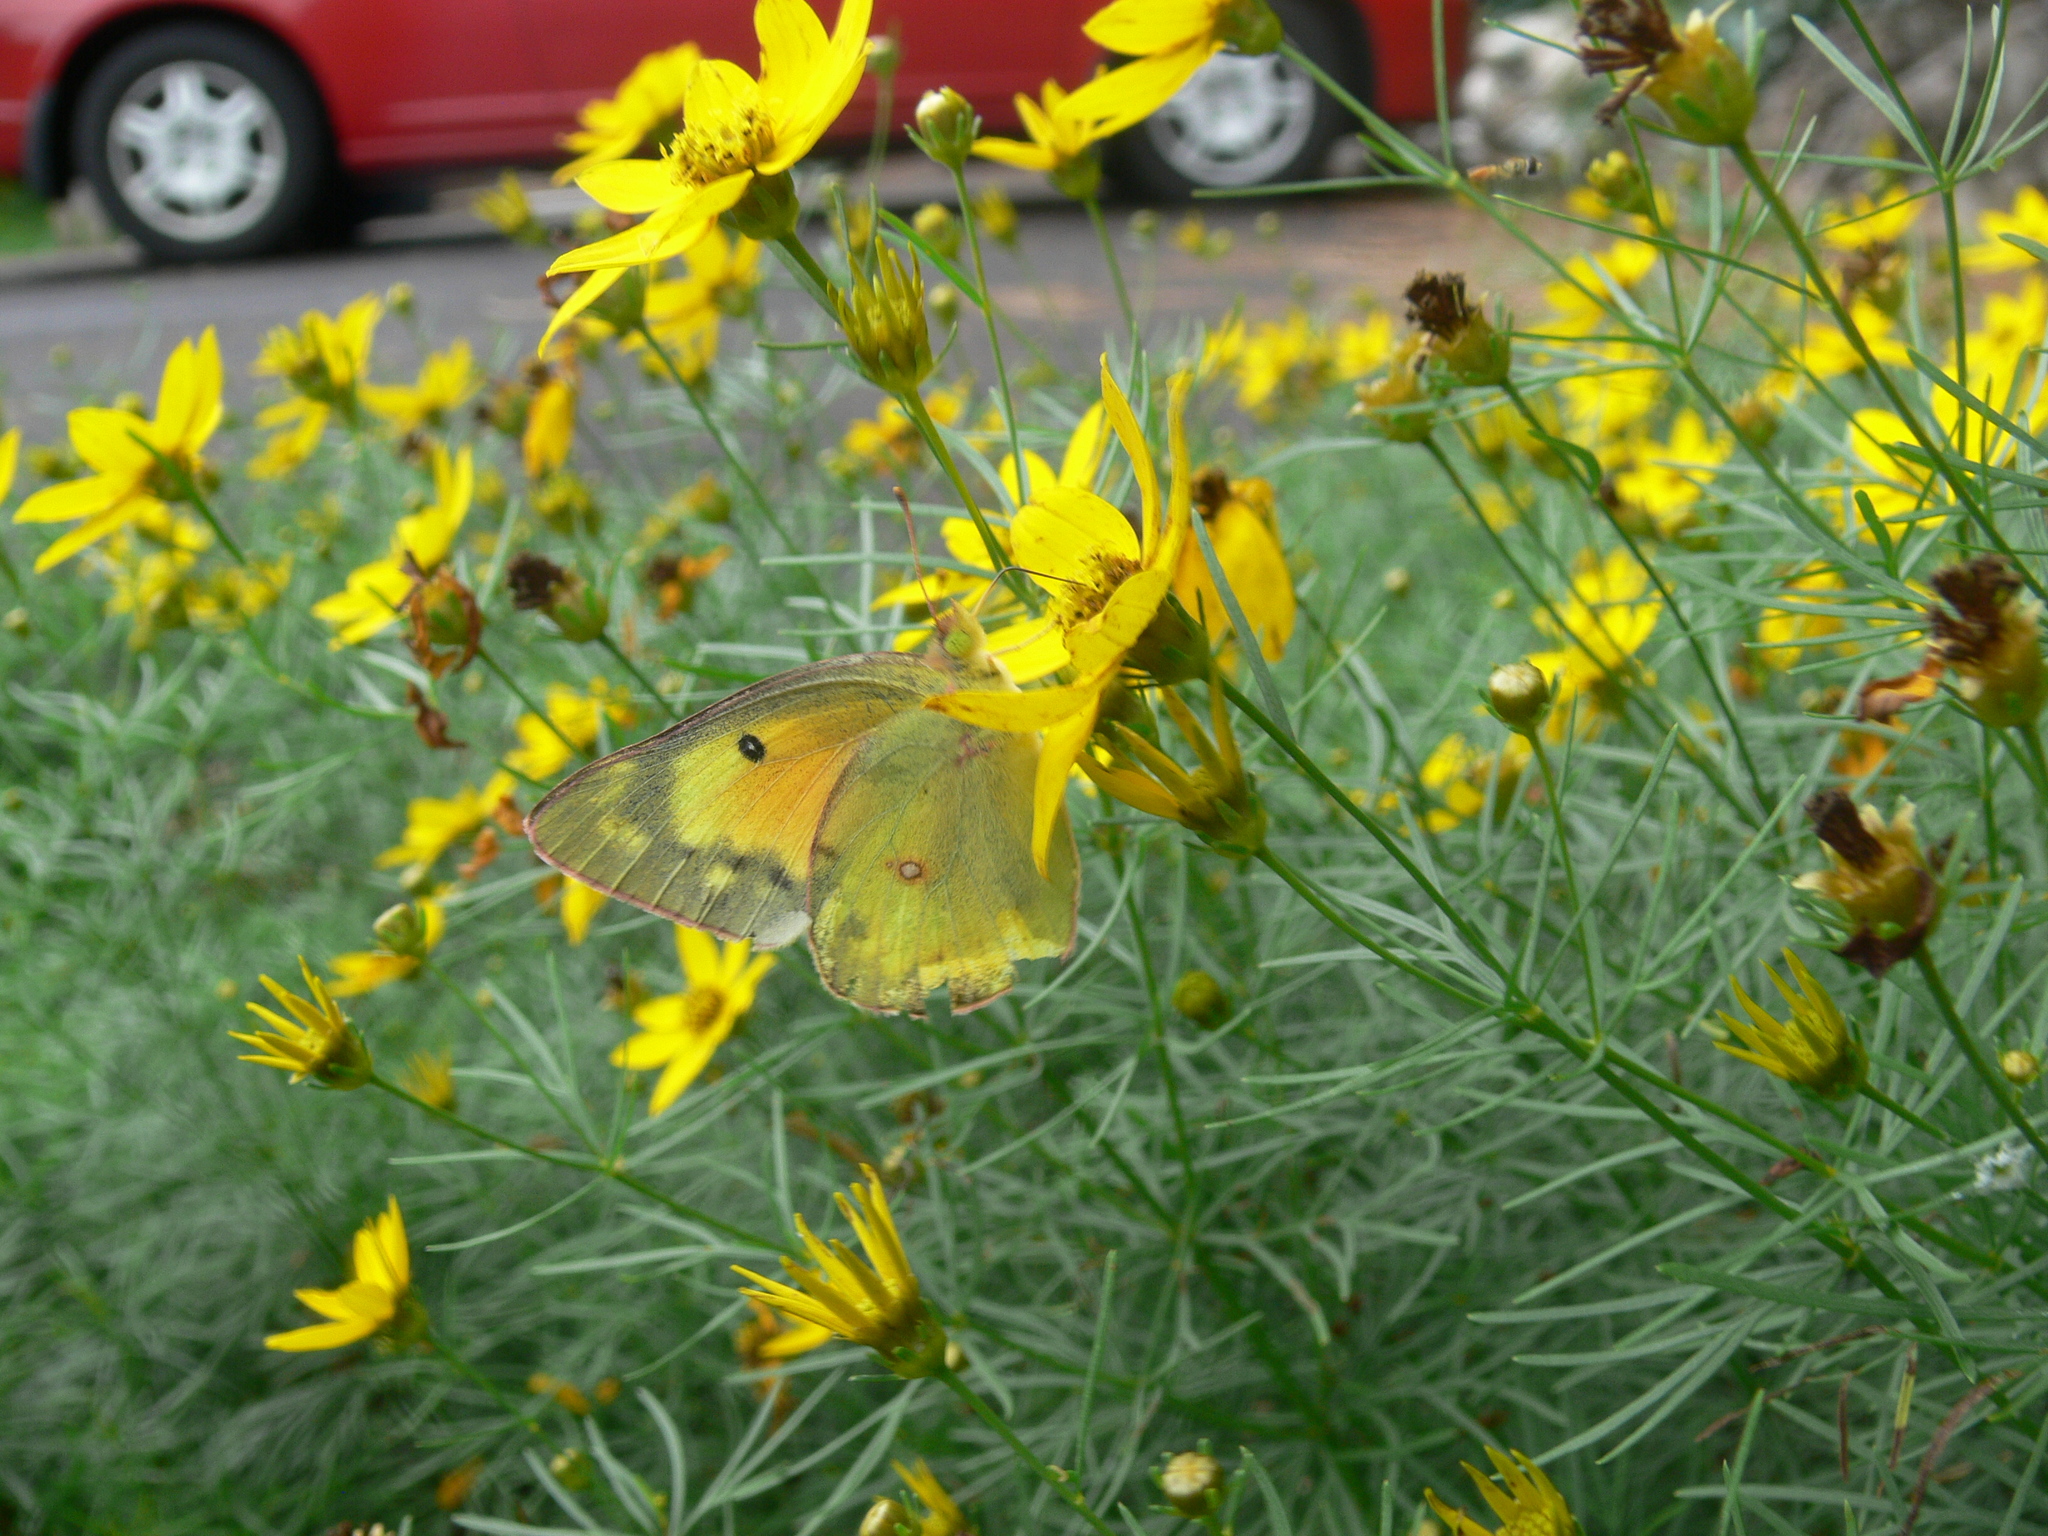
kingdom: Animalia
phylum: Arthropoda
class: Insecta
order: Lepidoptera
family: Pieridae
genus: Colias
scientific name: Colias eurytheme
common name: Alfalfa butterfly
